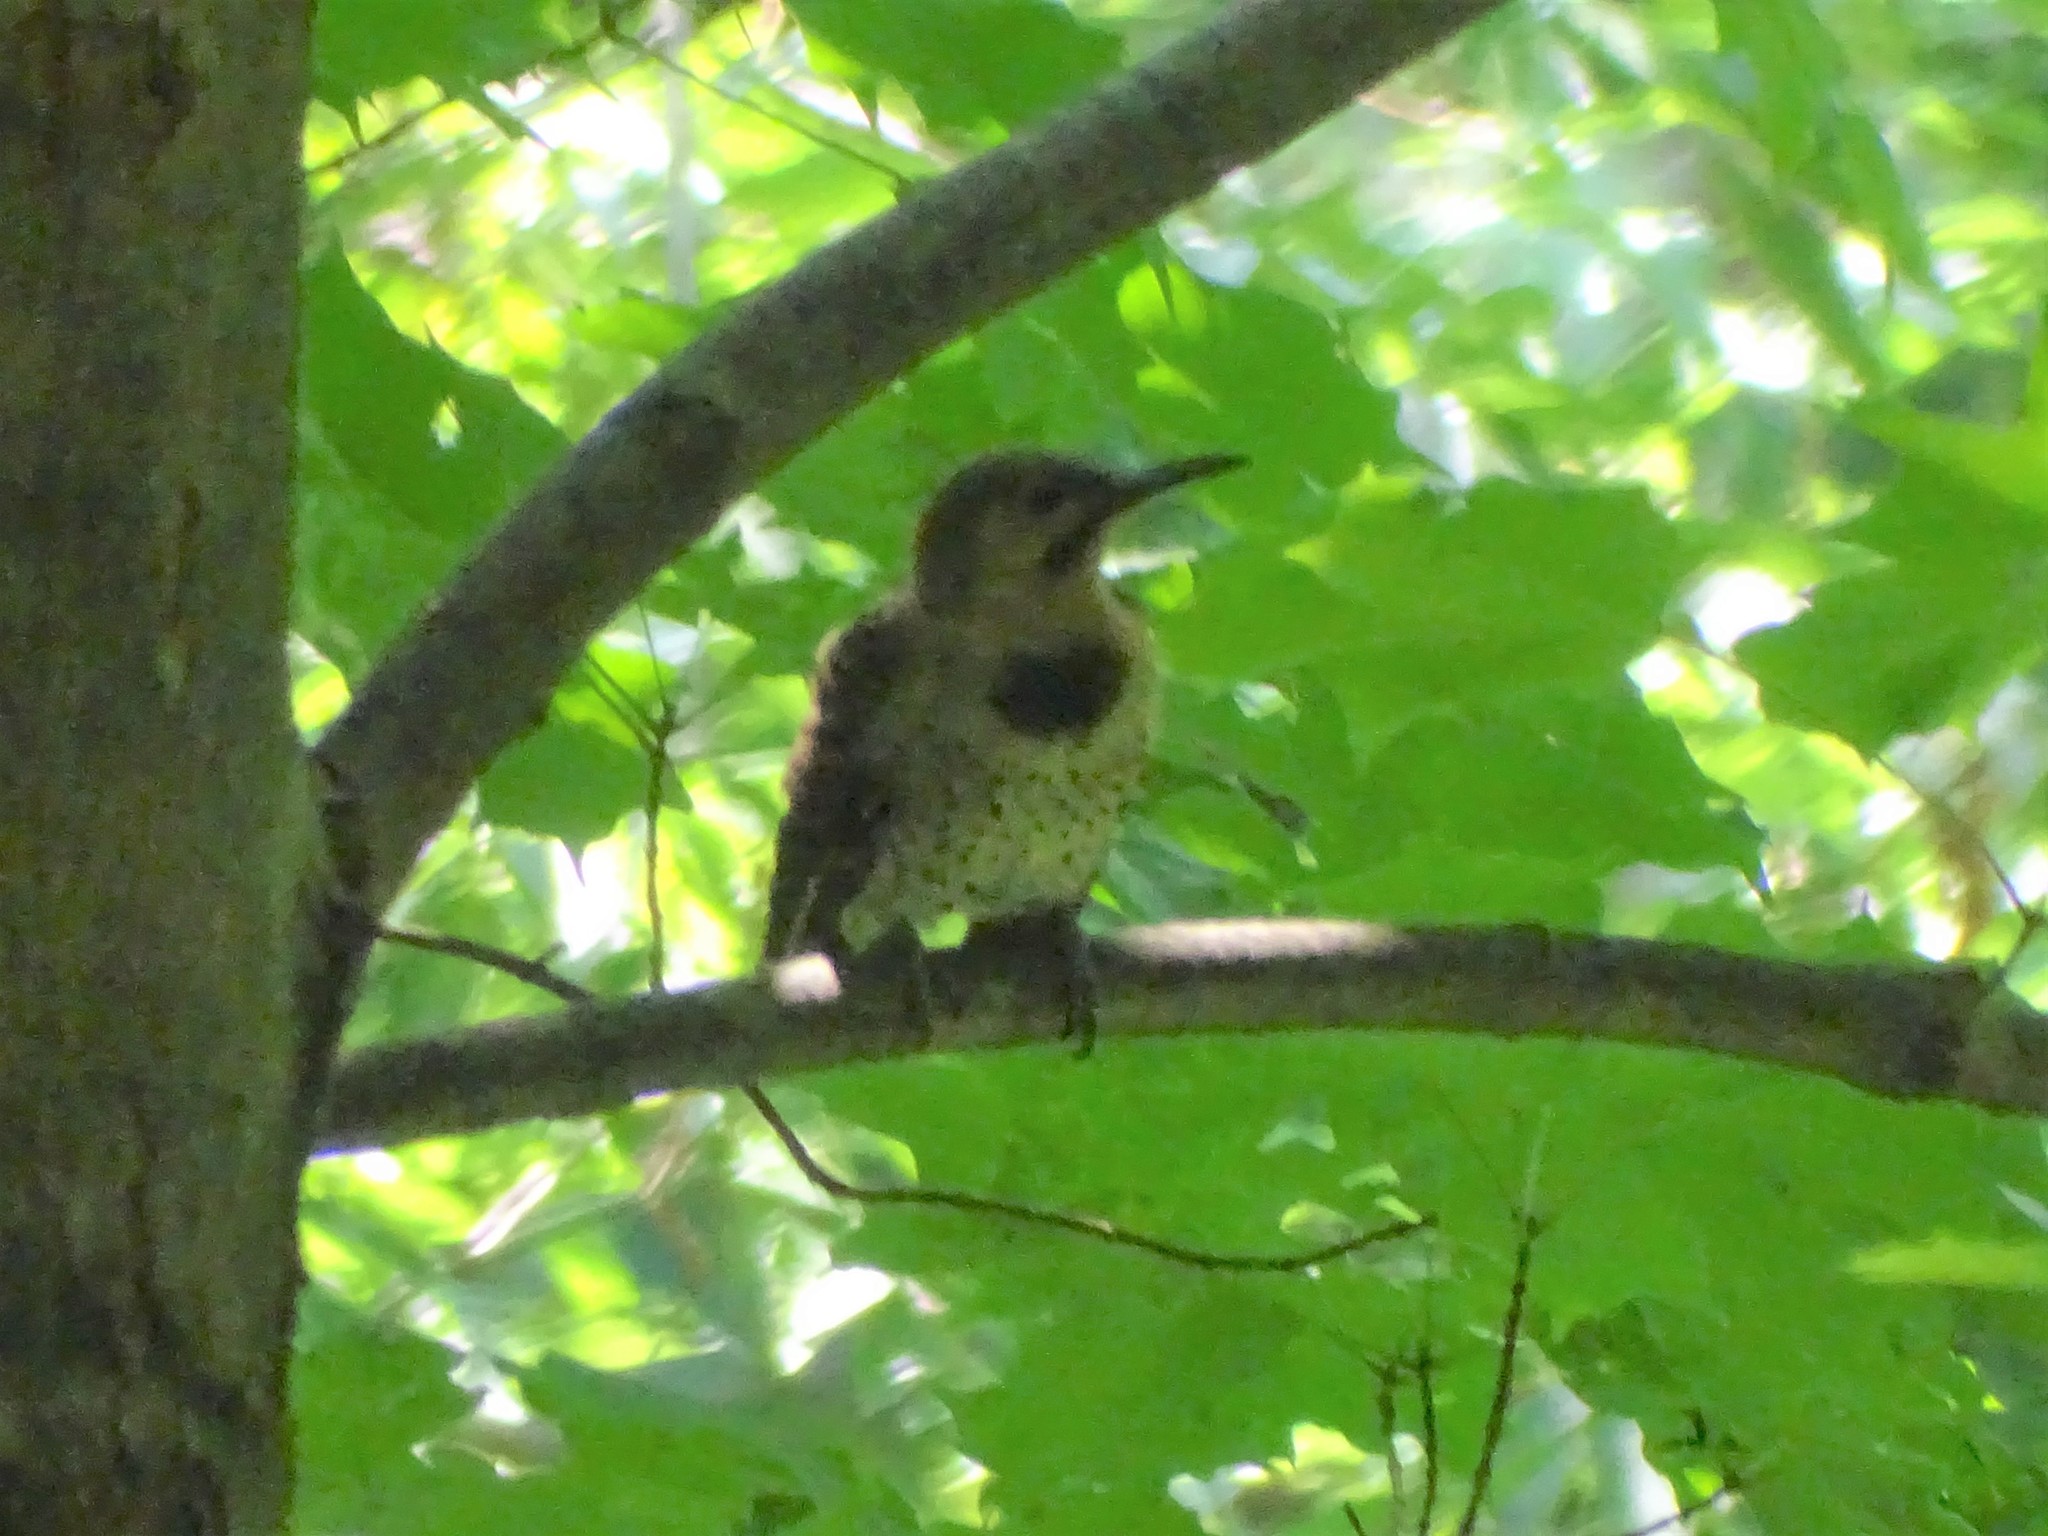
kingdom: Animalia
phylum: Chordata
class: Aves
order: Piciformes
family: Picidae
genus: Colaptes
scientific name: Colaptes auratus
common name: Northern flicker
